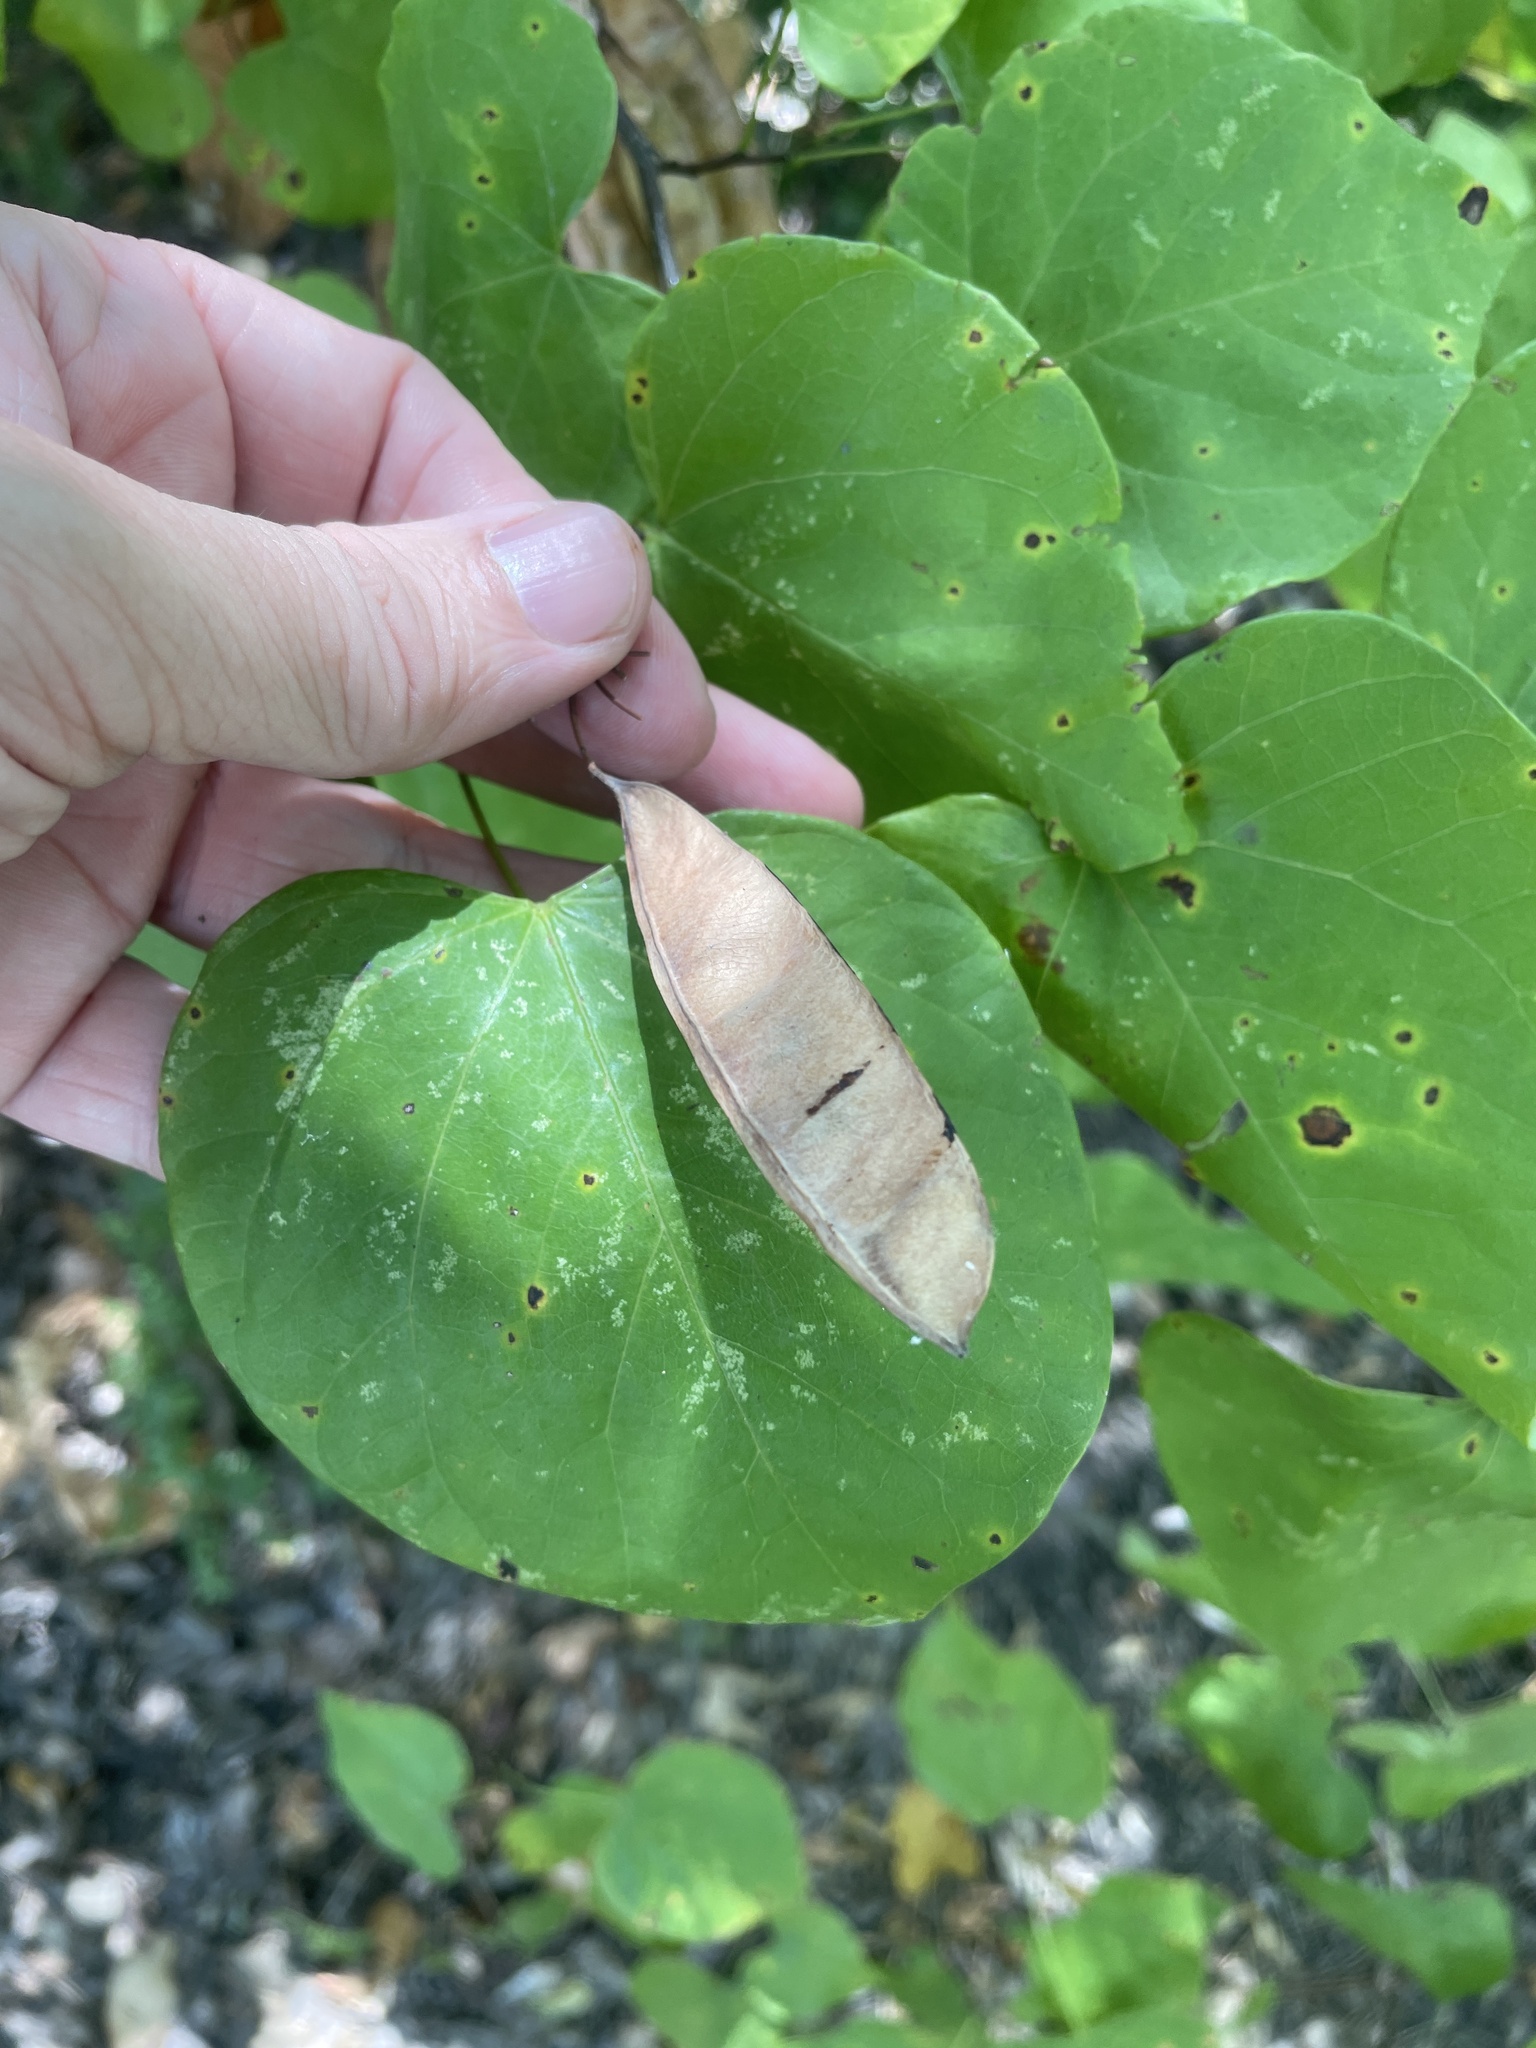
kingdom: Plantae
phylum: Tracheophyta
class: Magnoliopsida
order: Fabales
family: Fabaceae
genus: Cercis
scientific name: Cercis canadensis
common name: Eastern redbud
